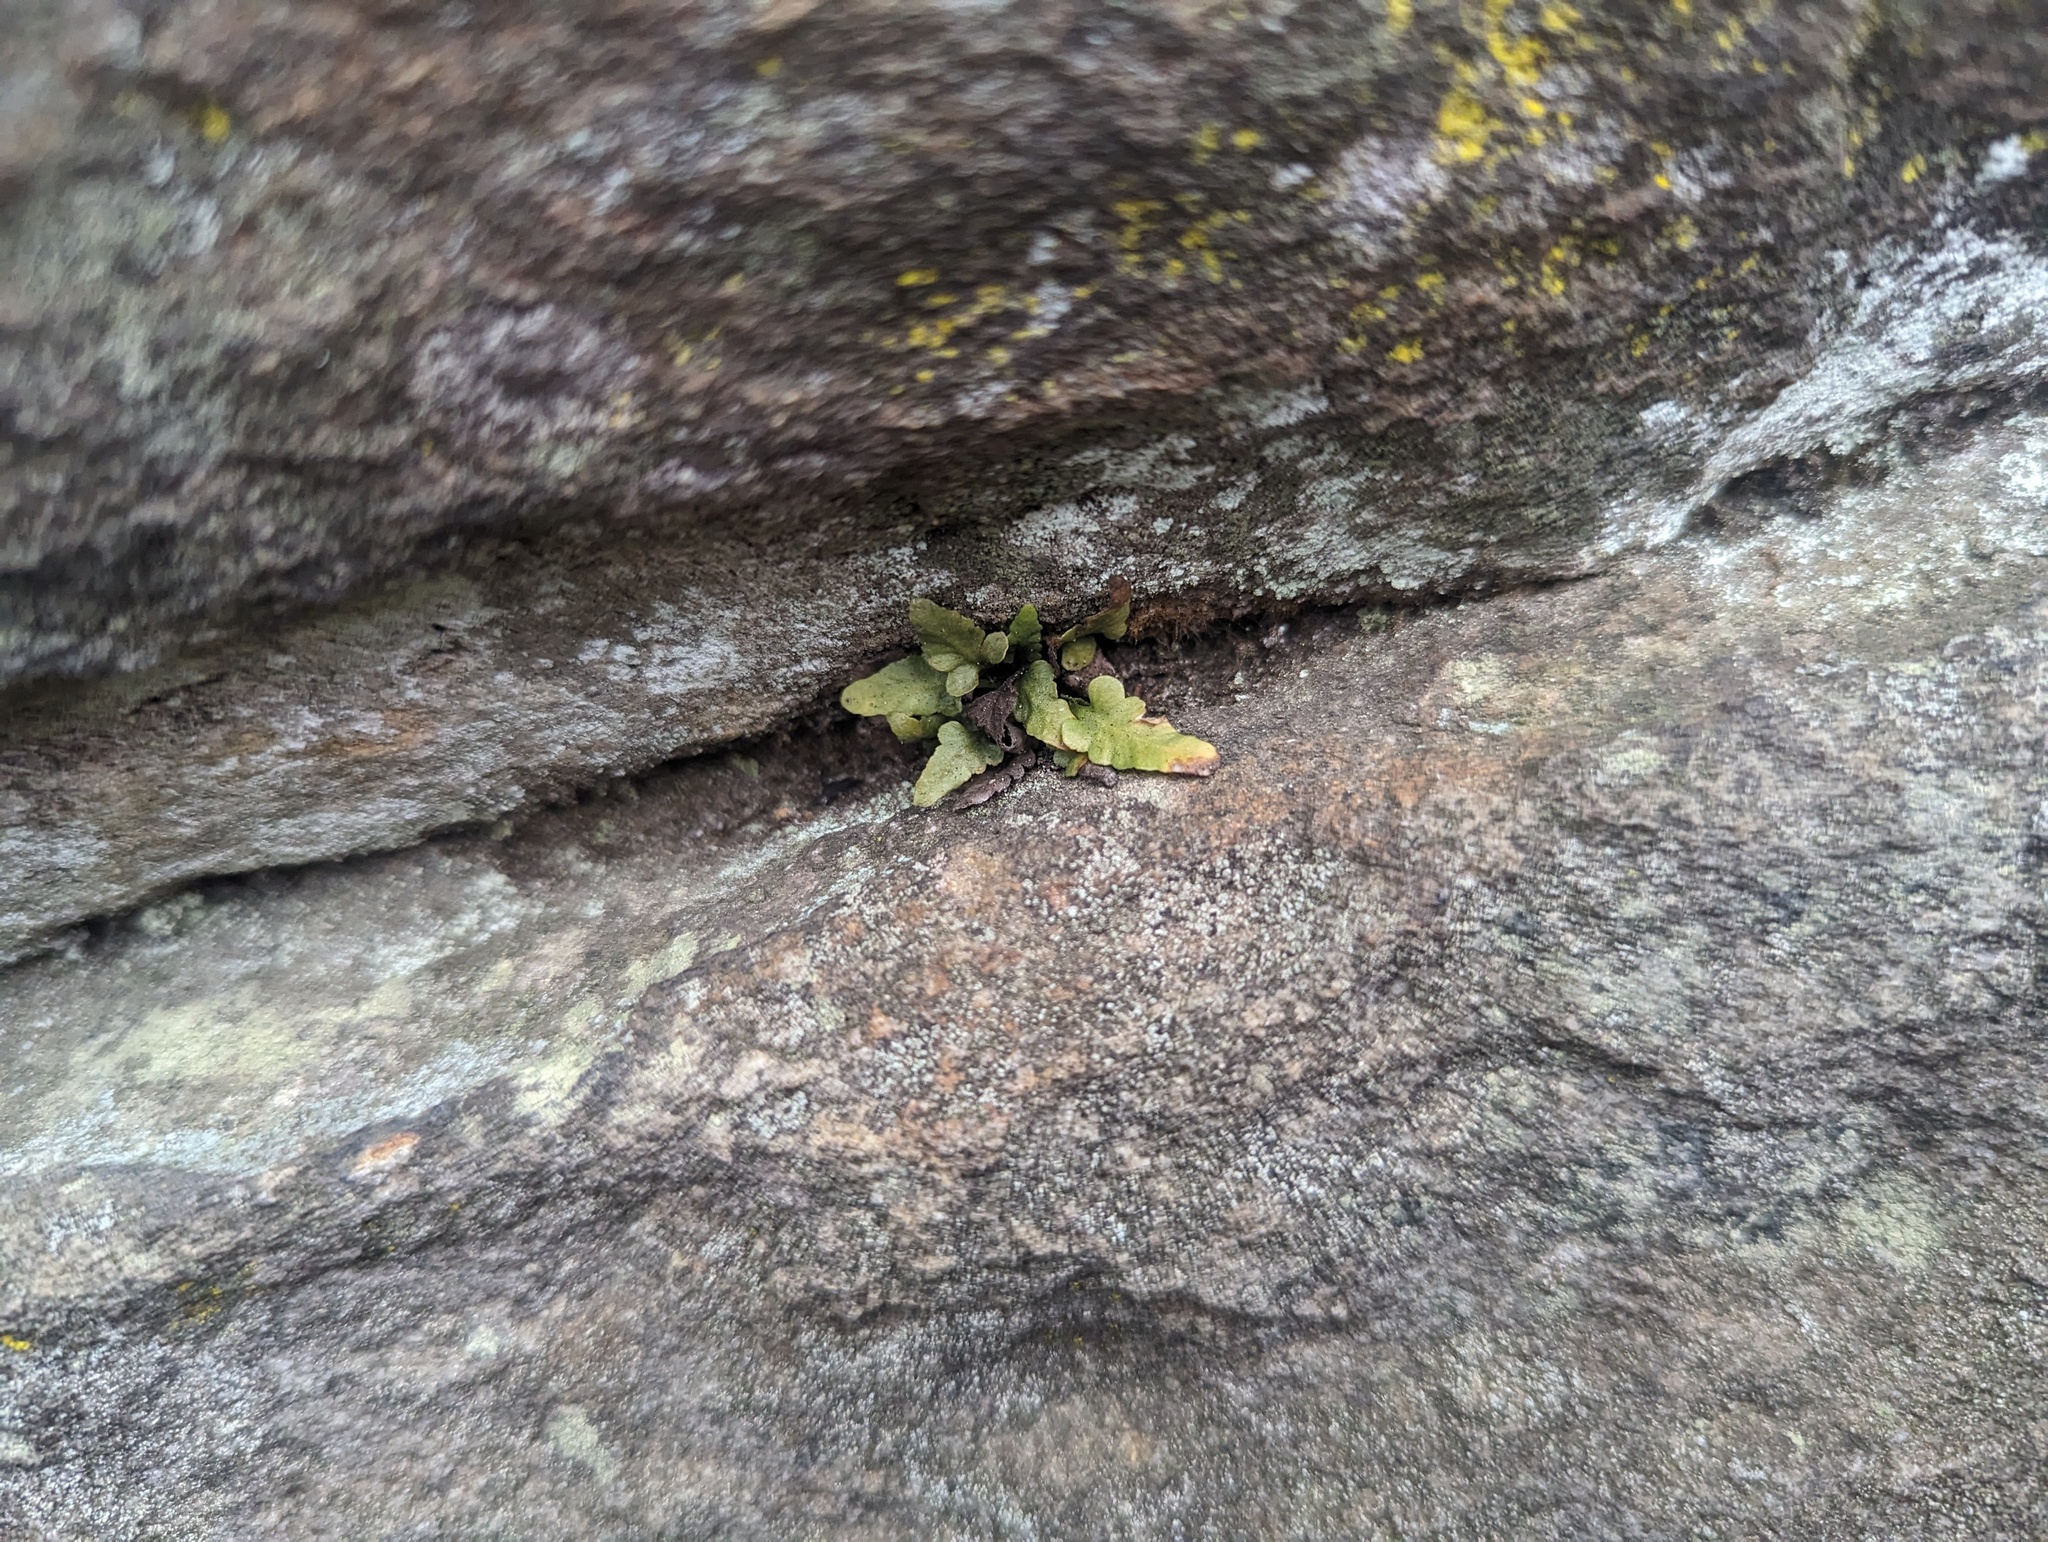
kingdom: Plantae
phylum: Tracheophyta
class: Polypodiopsida
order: Polypodiales
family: Aspleniaceae
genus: Asplenium
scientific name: Asplenium pinnatifidum
